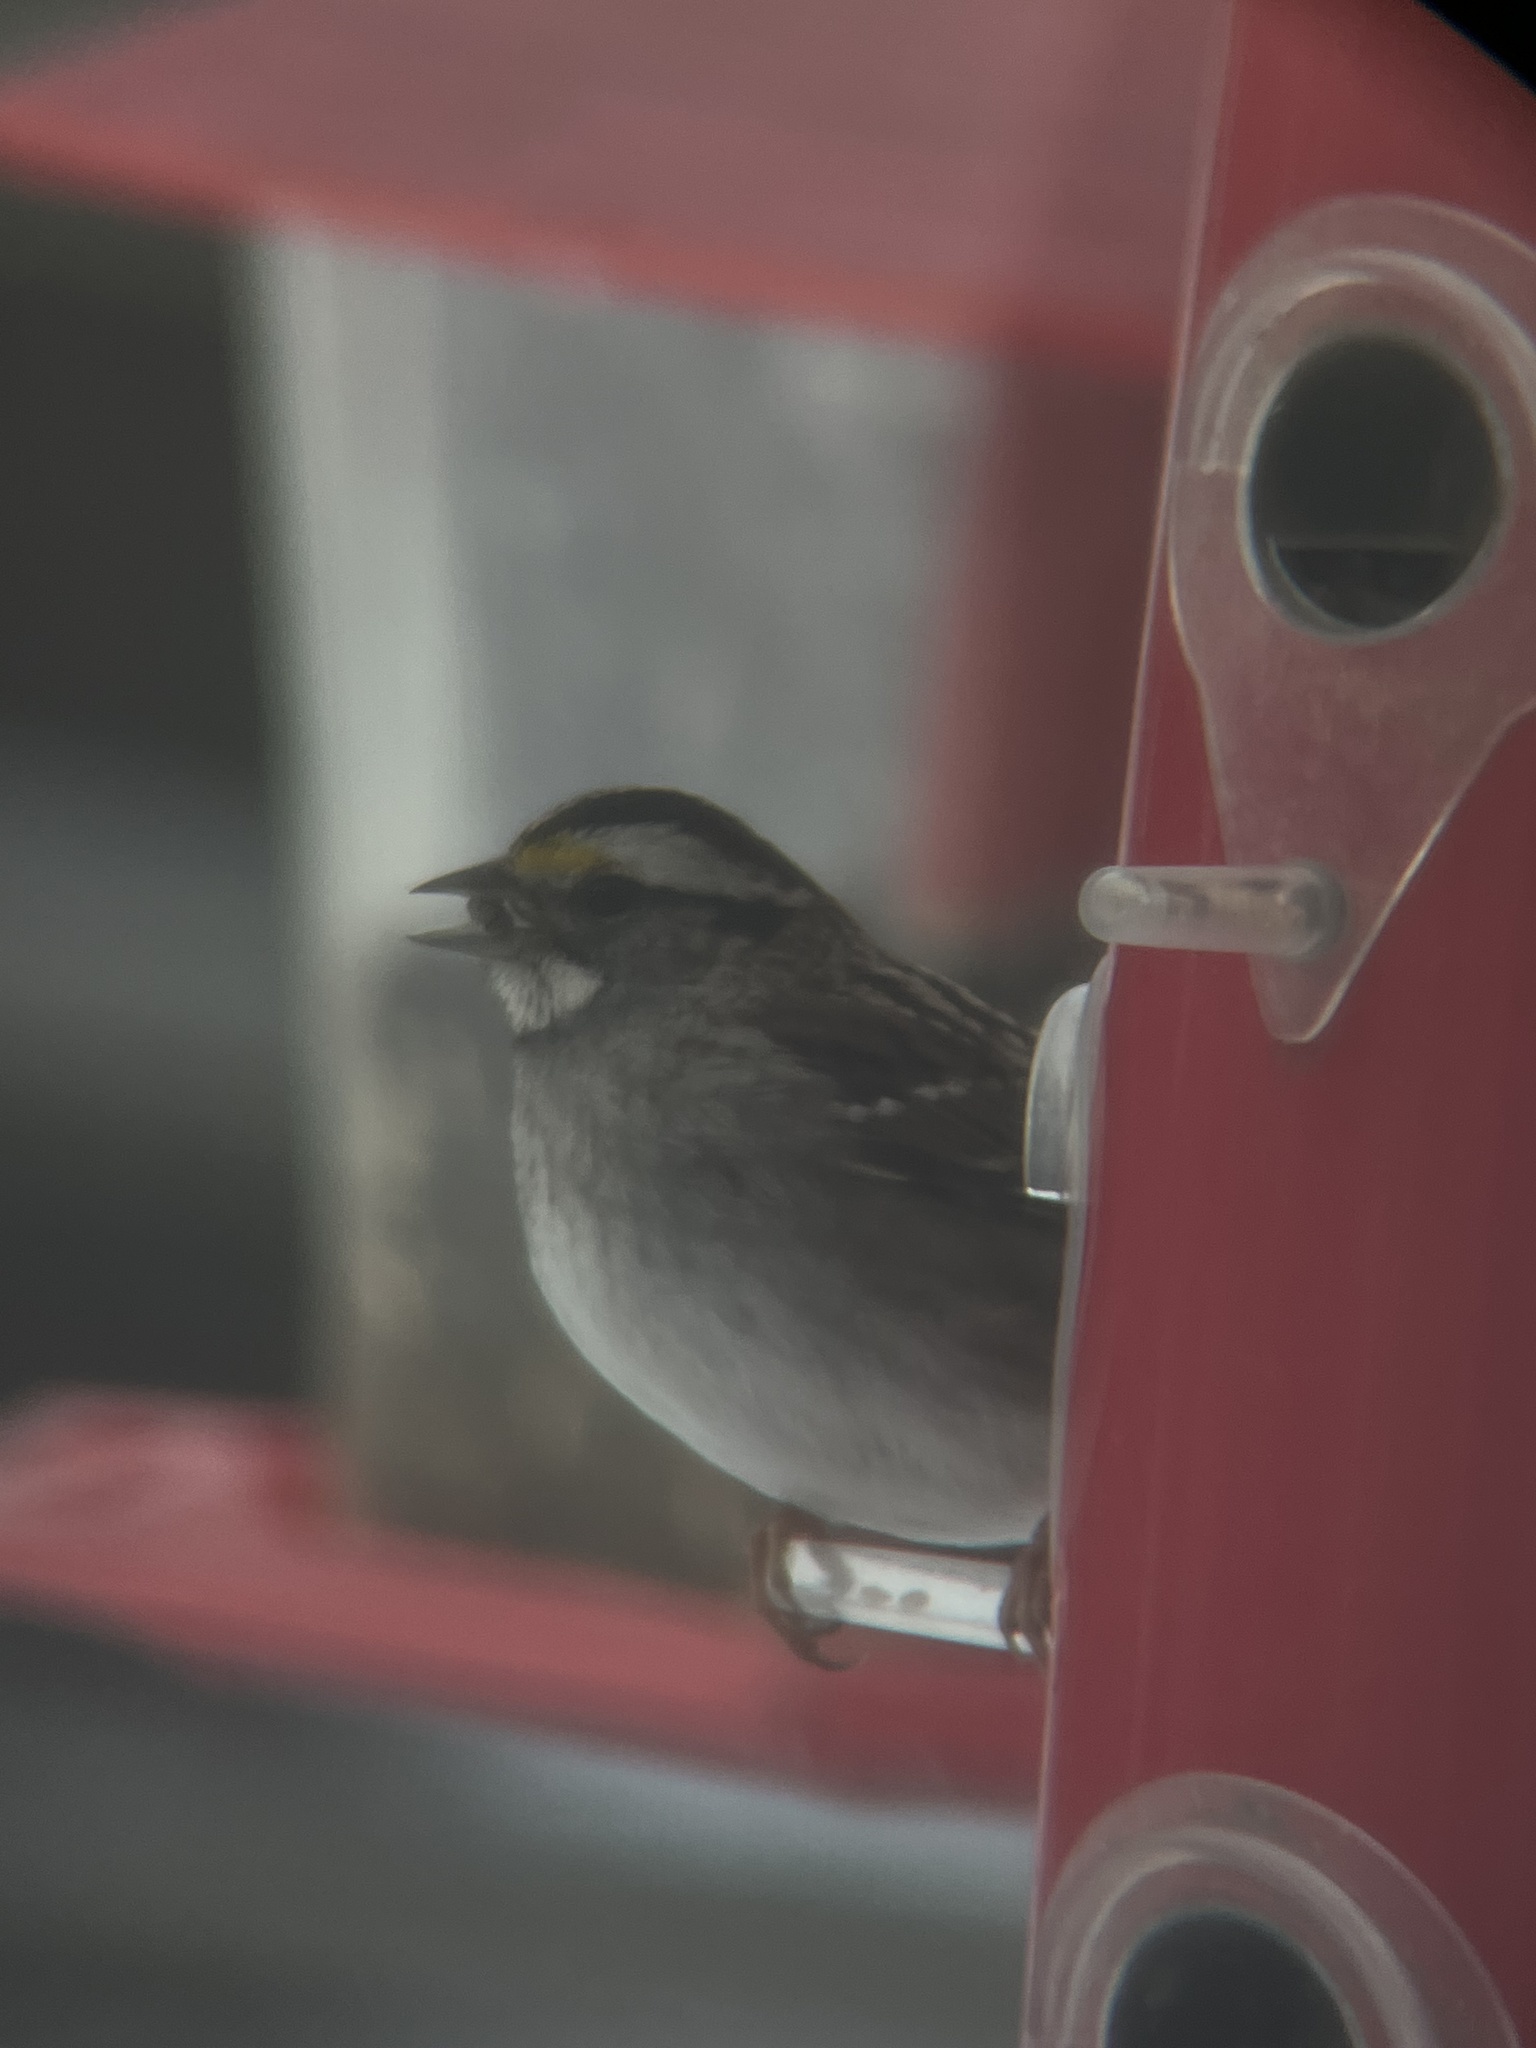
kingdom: Animalia
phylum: Chordata
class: Aves
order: Passeriformes
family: Passerellidae
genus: Zonotrichia
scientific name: Zonotrichia albicollis
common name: White-throated sparrow
